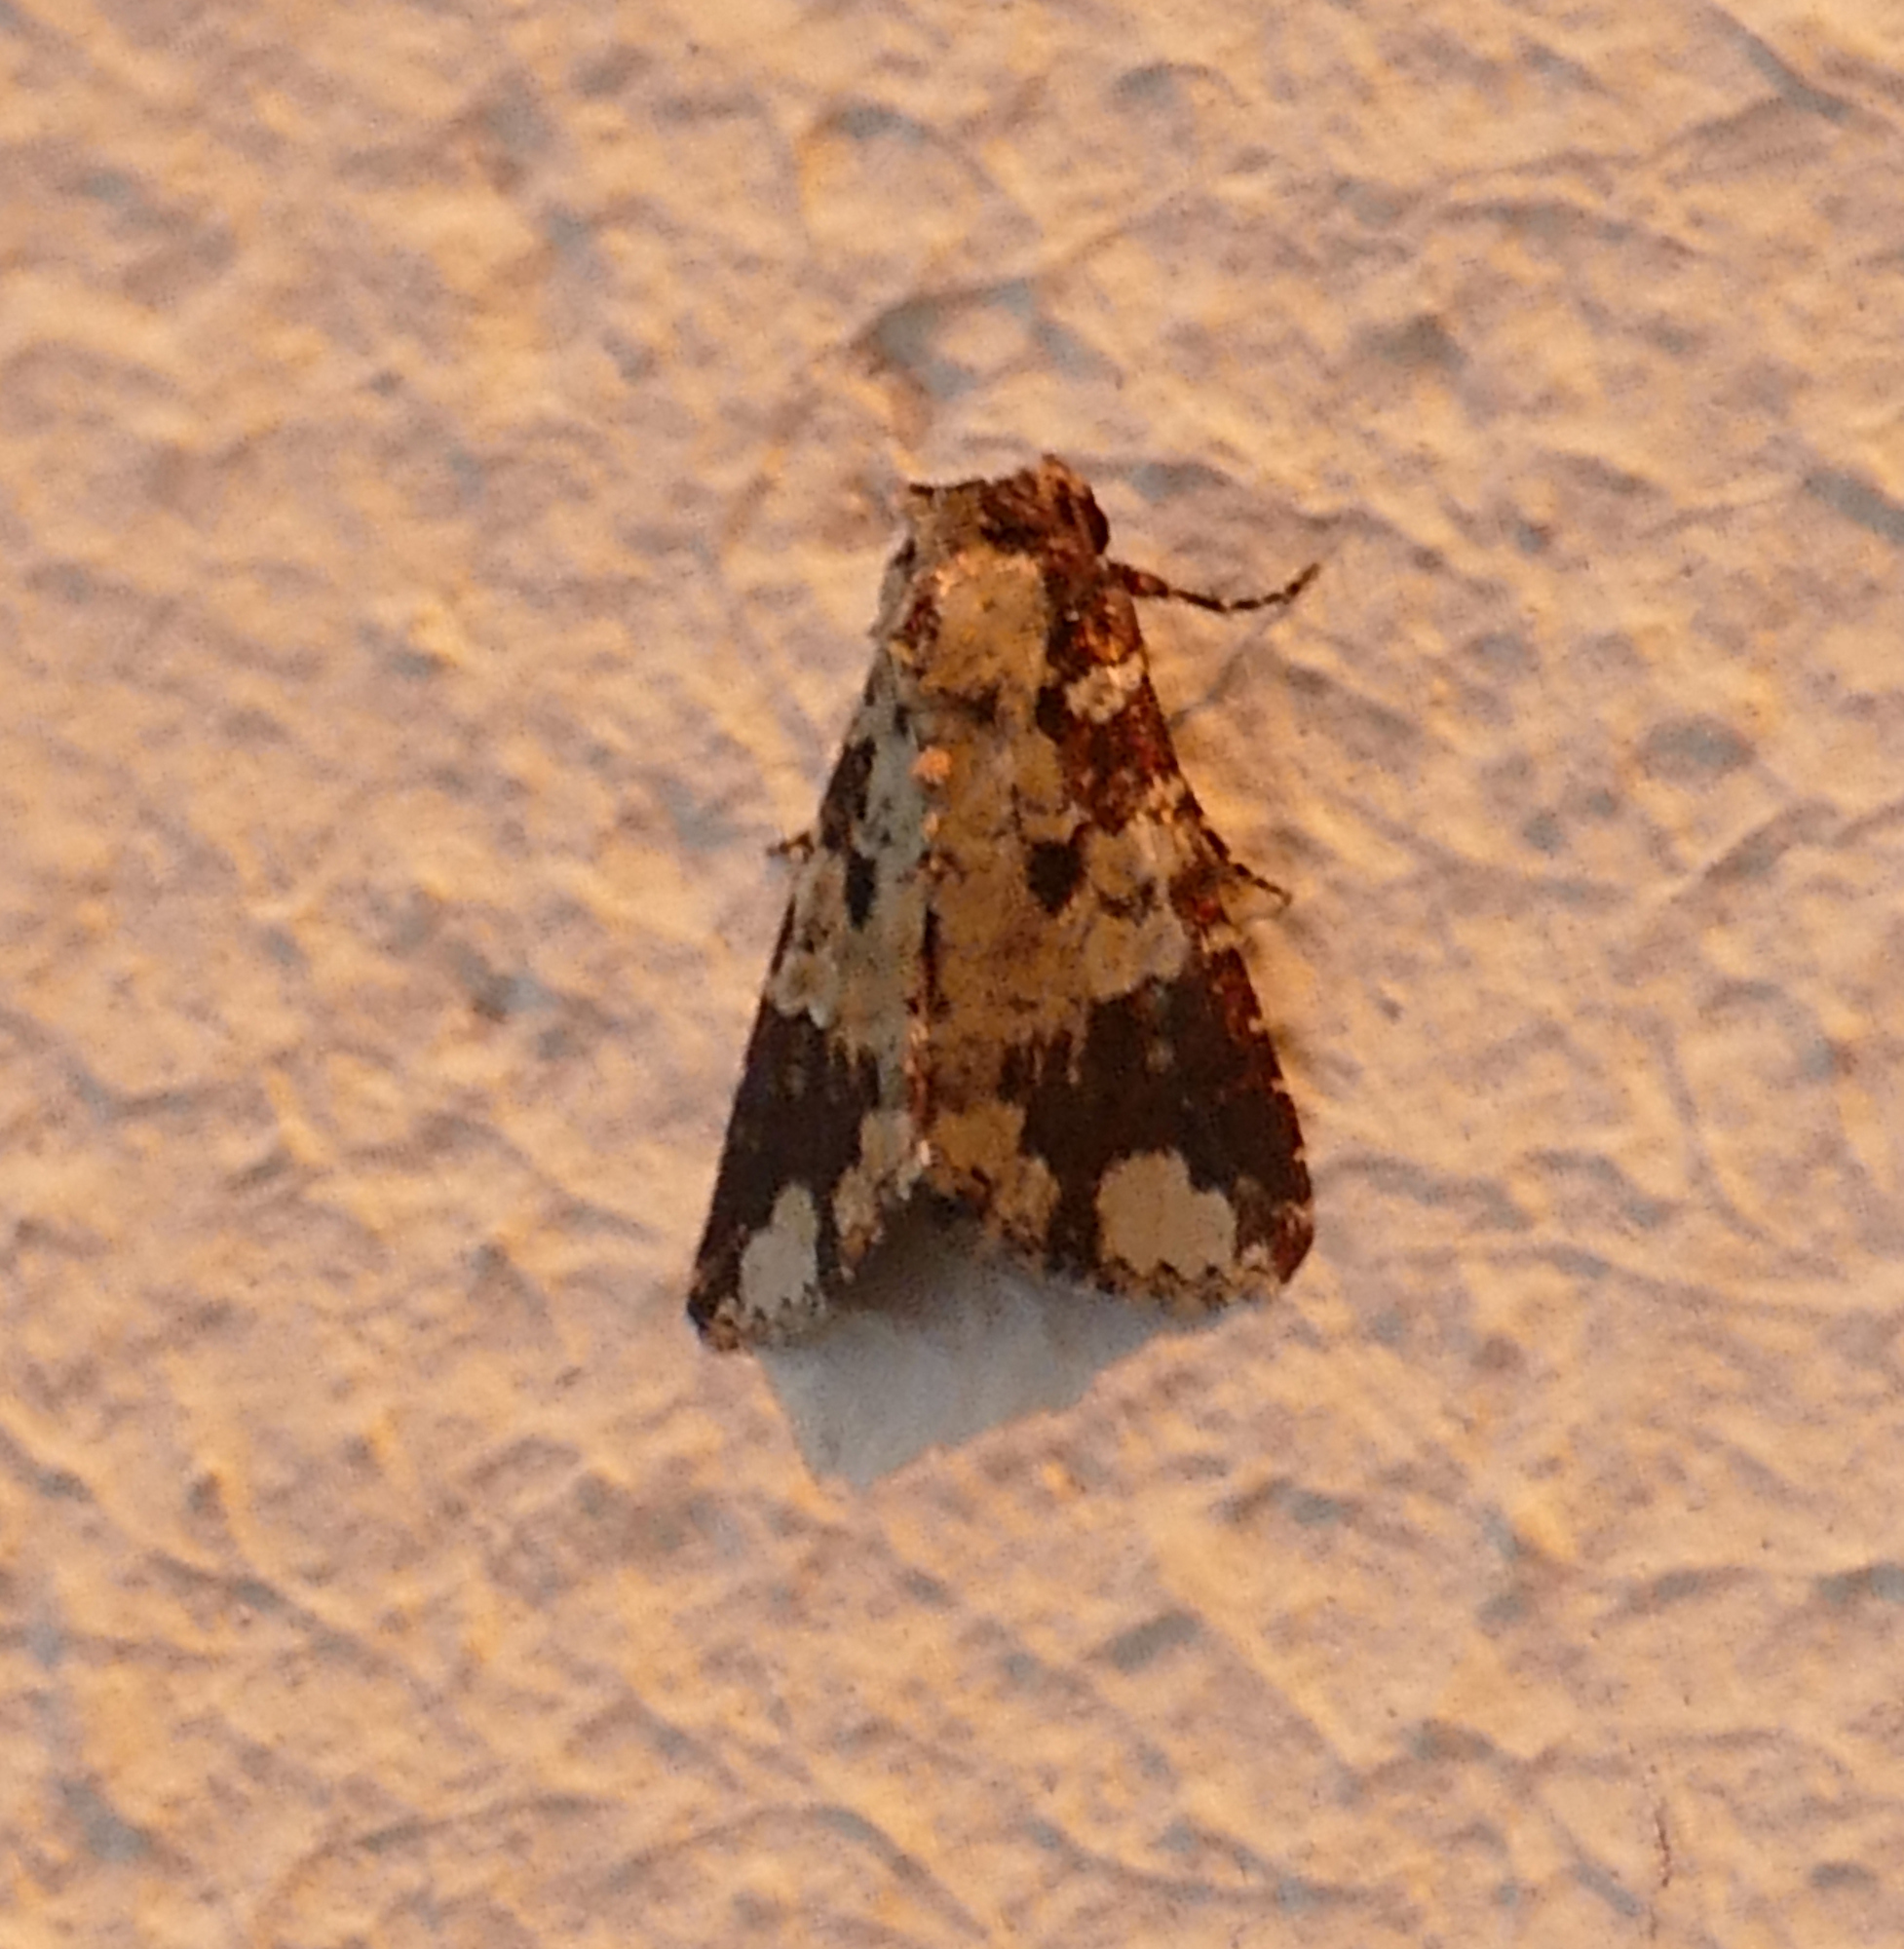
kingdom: Animalia
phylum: Arthropoda
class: Insecta
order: Lepidoptera
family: Noctuidae
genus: Condica
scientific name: Condica confederata
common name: The confederate
